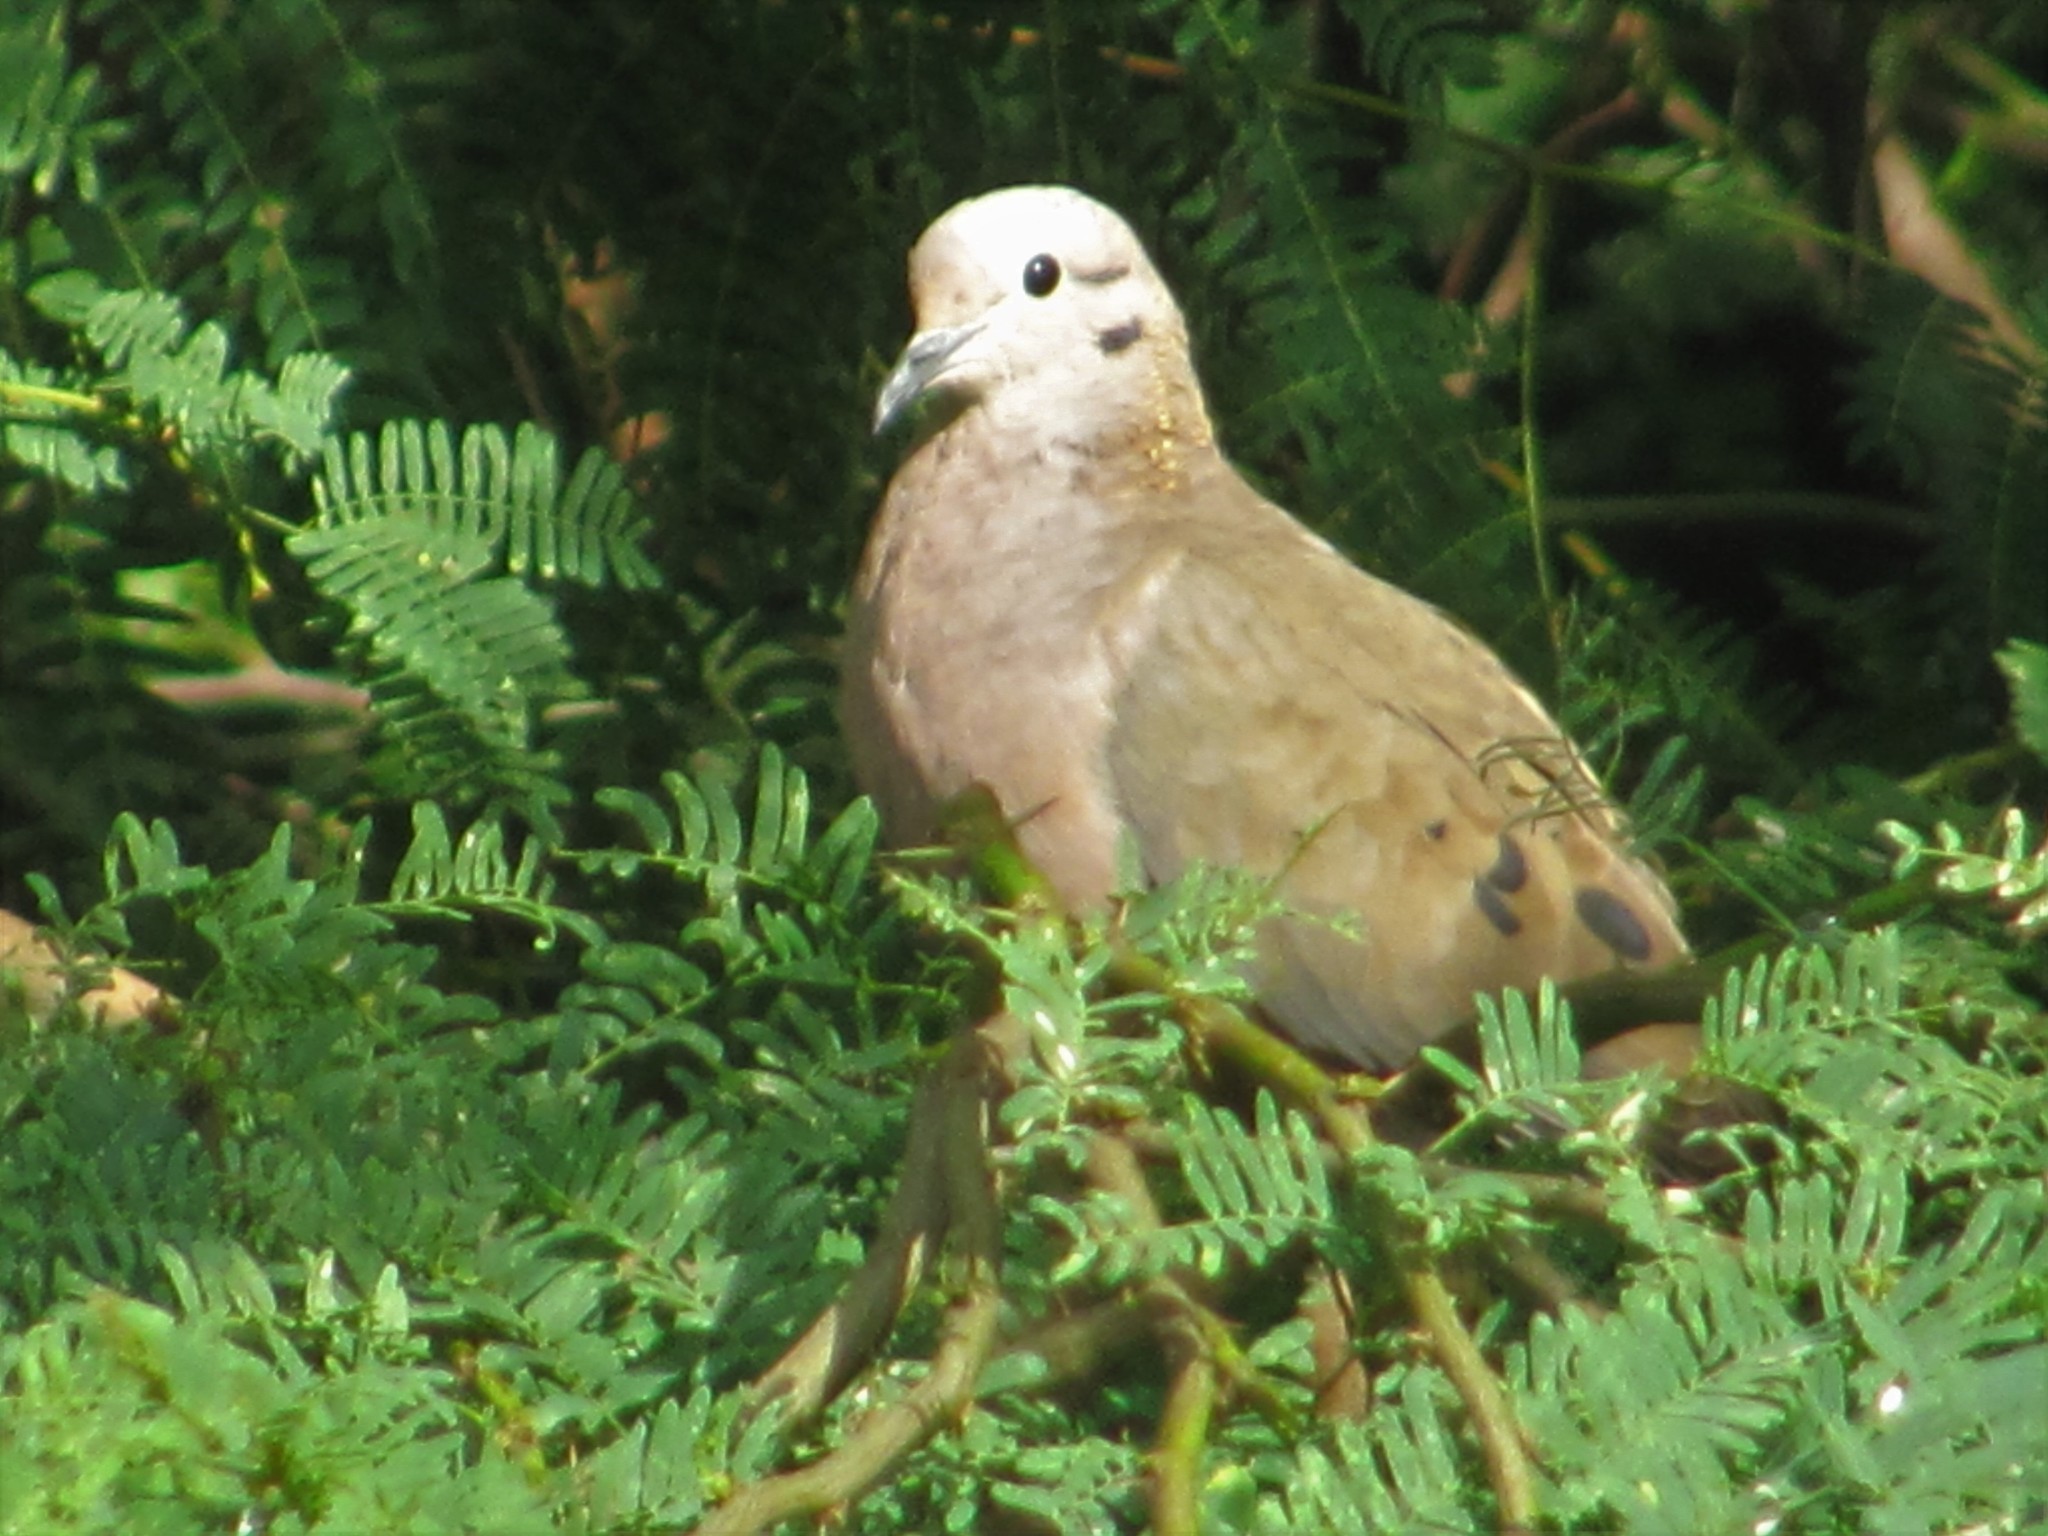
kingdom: Animalia
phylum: Chordata
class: Aves
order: Columbiformes
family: Columbidae
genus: Zenaida
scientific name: Zenaida auriculata
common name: Eared dove
